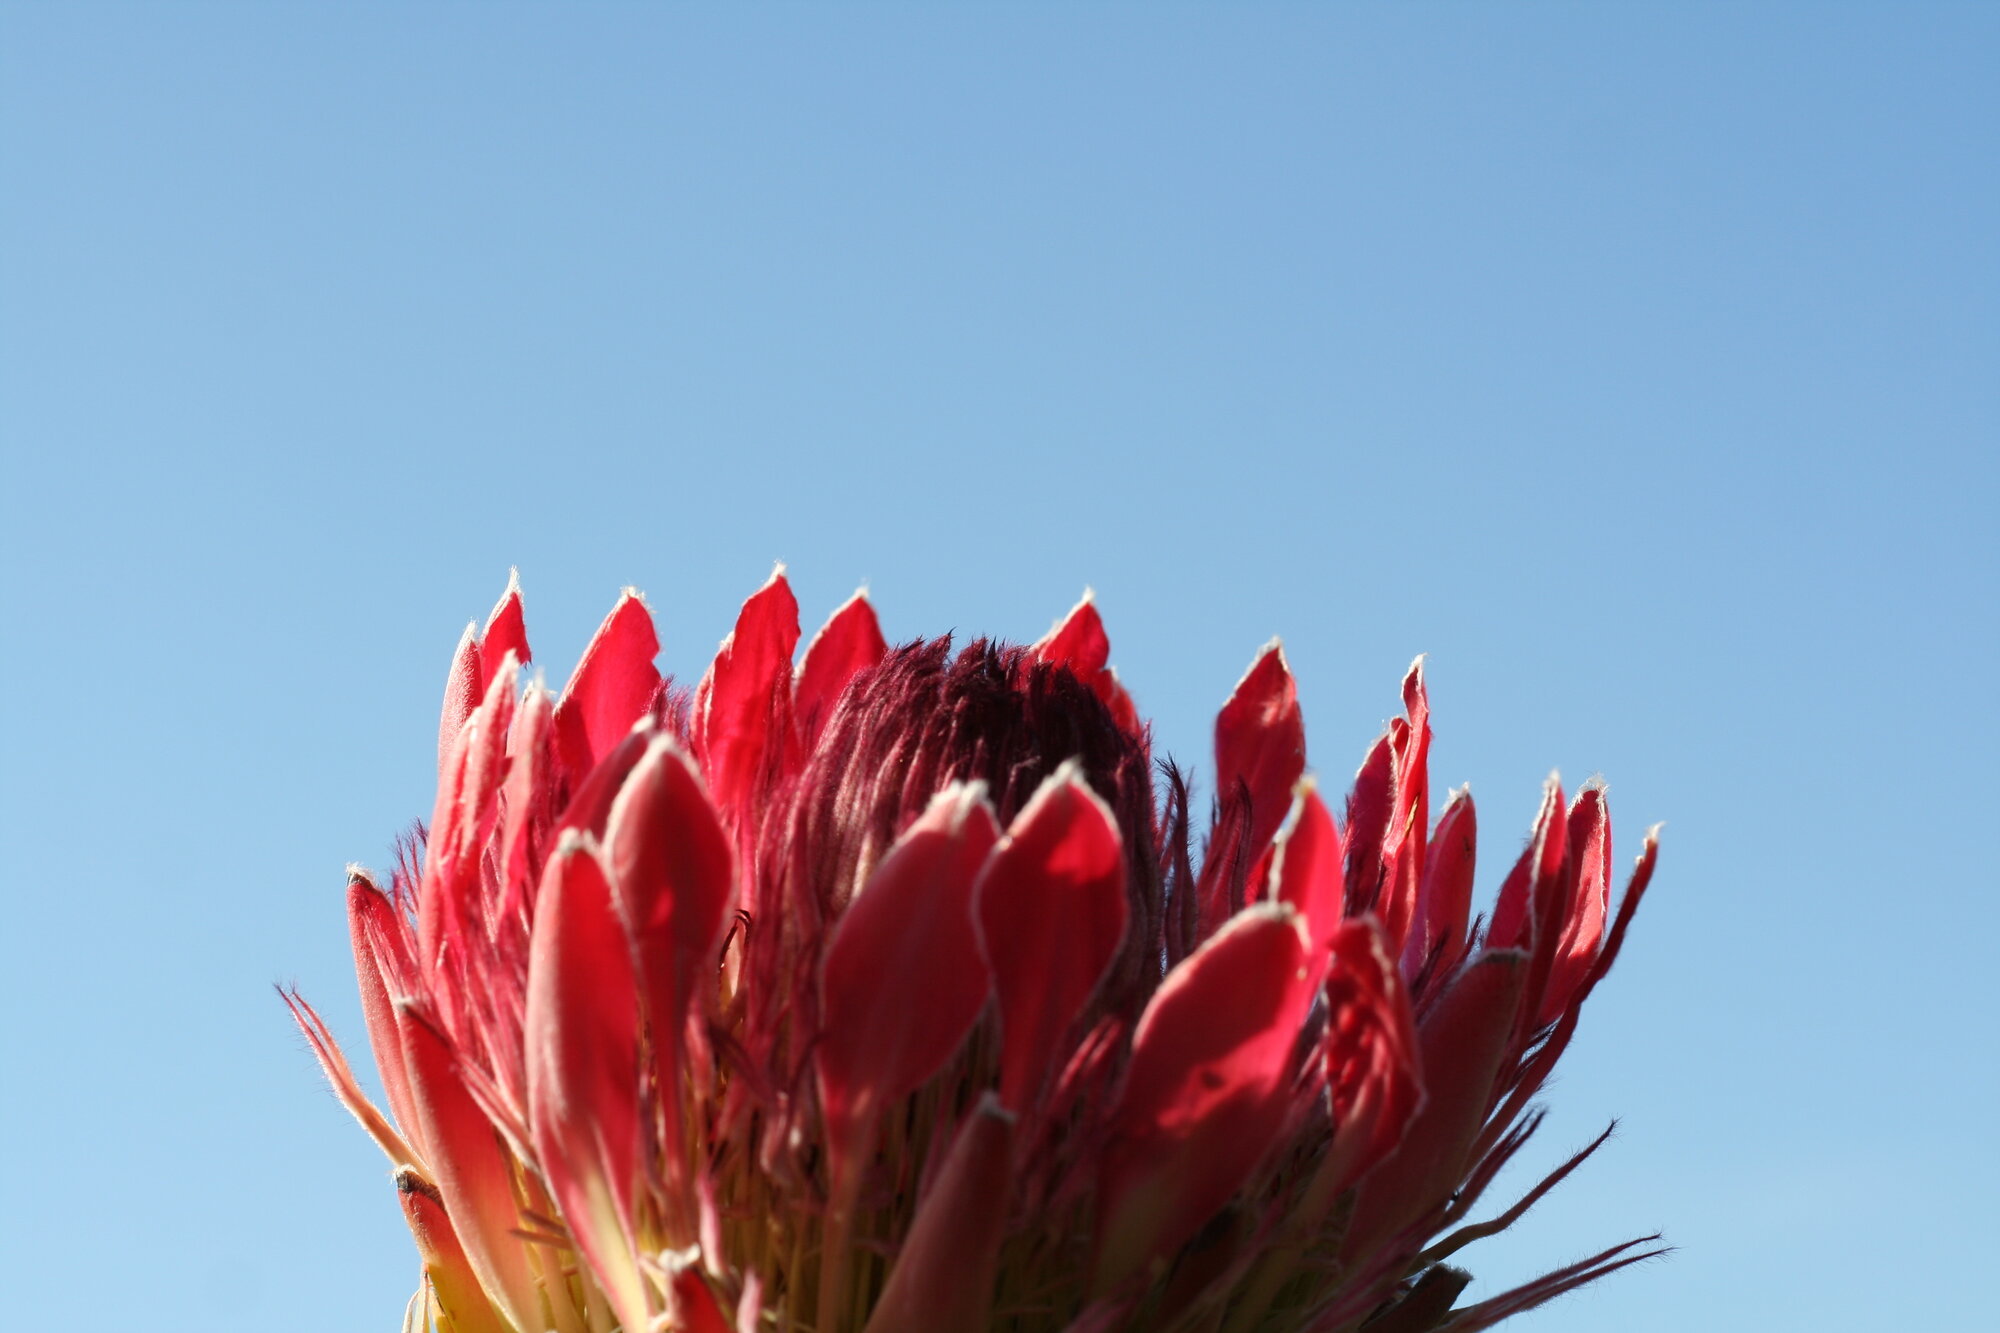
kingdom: Plantae
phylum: Tracheophyta
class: Magnoliopsida
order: Proteales
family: Proteaceae
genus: Protea
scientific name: Protea eximia
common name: Broad-leaved sugarbush
